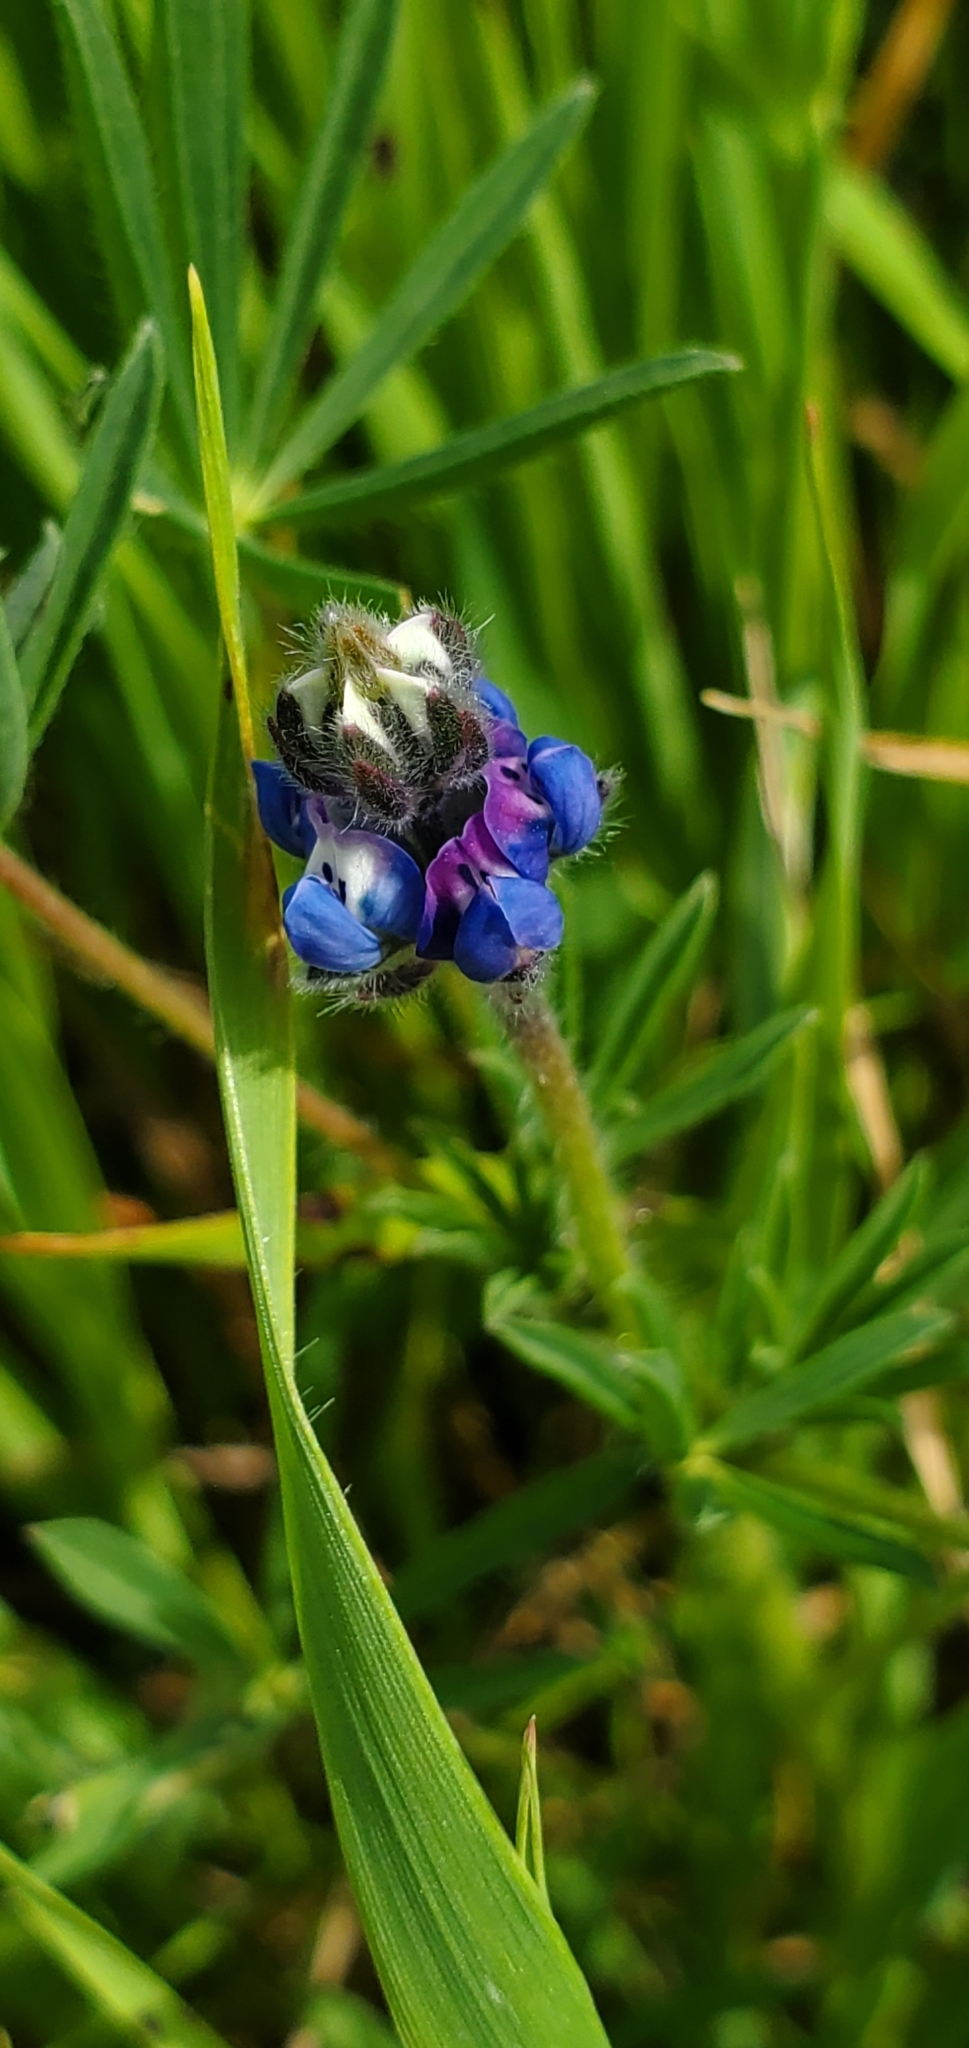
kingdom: Plantae
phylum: Tracheophyta
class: Magnoliopsida
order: Fabales
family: Fabaceae
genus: Lupinus
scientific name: Lupinus bicolor
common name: Miniature lupine
